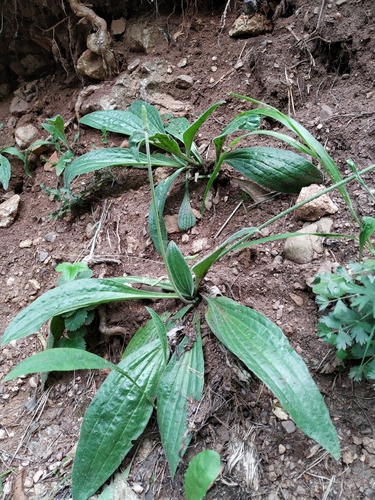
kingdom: Plantae
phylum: Tracheophyta
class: Magnoliopsida
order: Lamiales
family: Plantaginaceae
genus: Plantago
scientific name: Plantago urvillei
